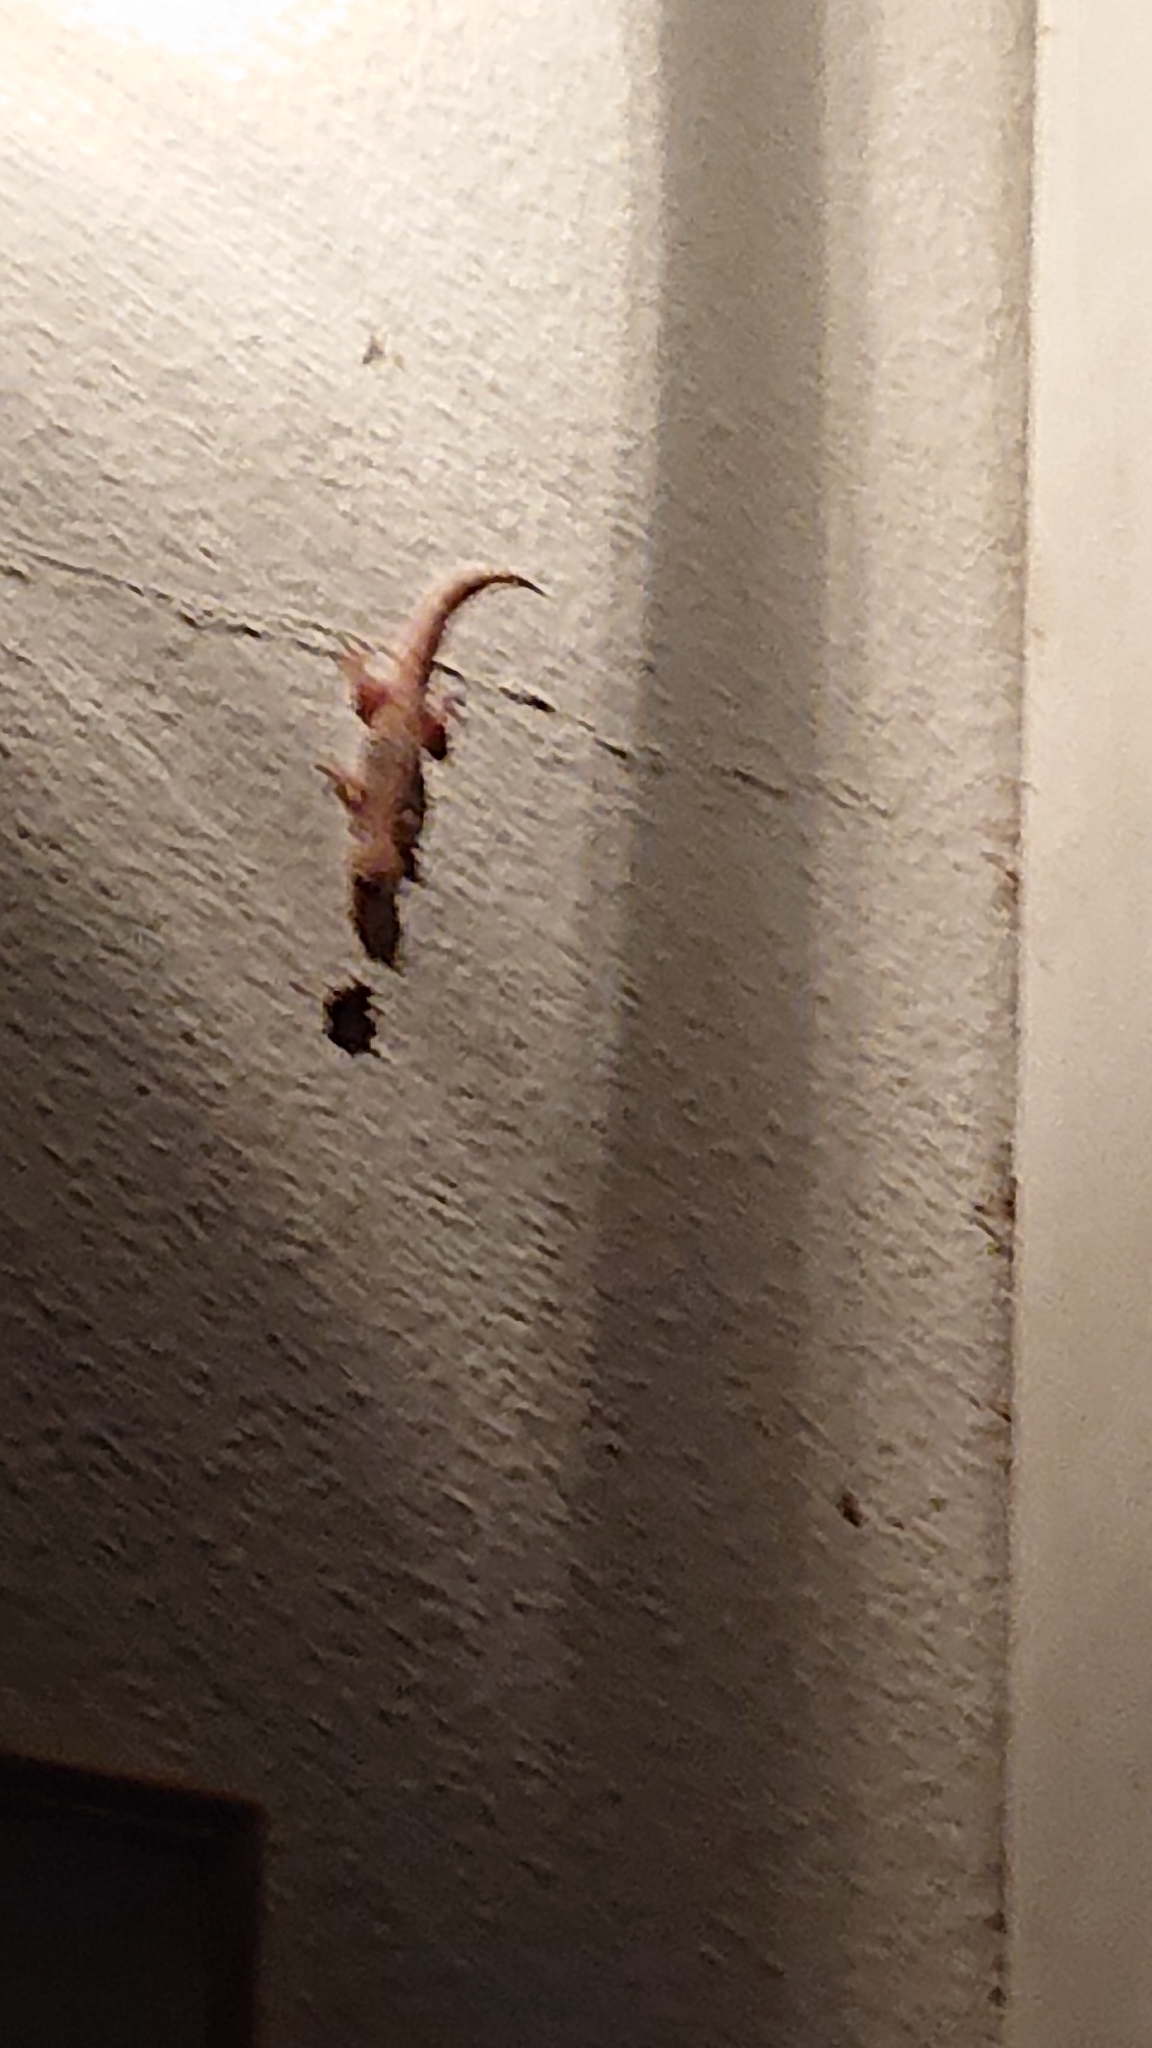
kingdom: Animalia
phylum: Chordata
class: Squamata
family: Gekkonidae
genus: Hemidactylus
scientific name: Hemidactylus turcicus
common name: Turkish gecko
